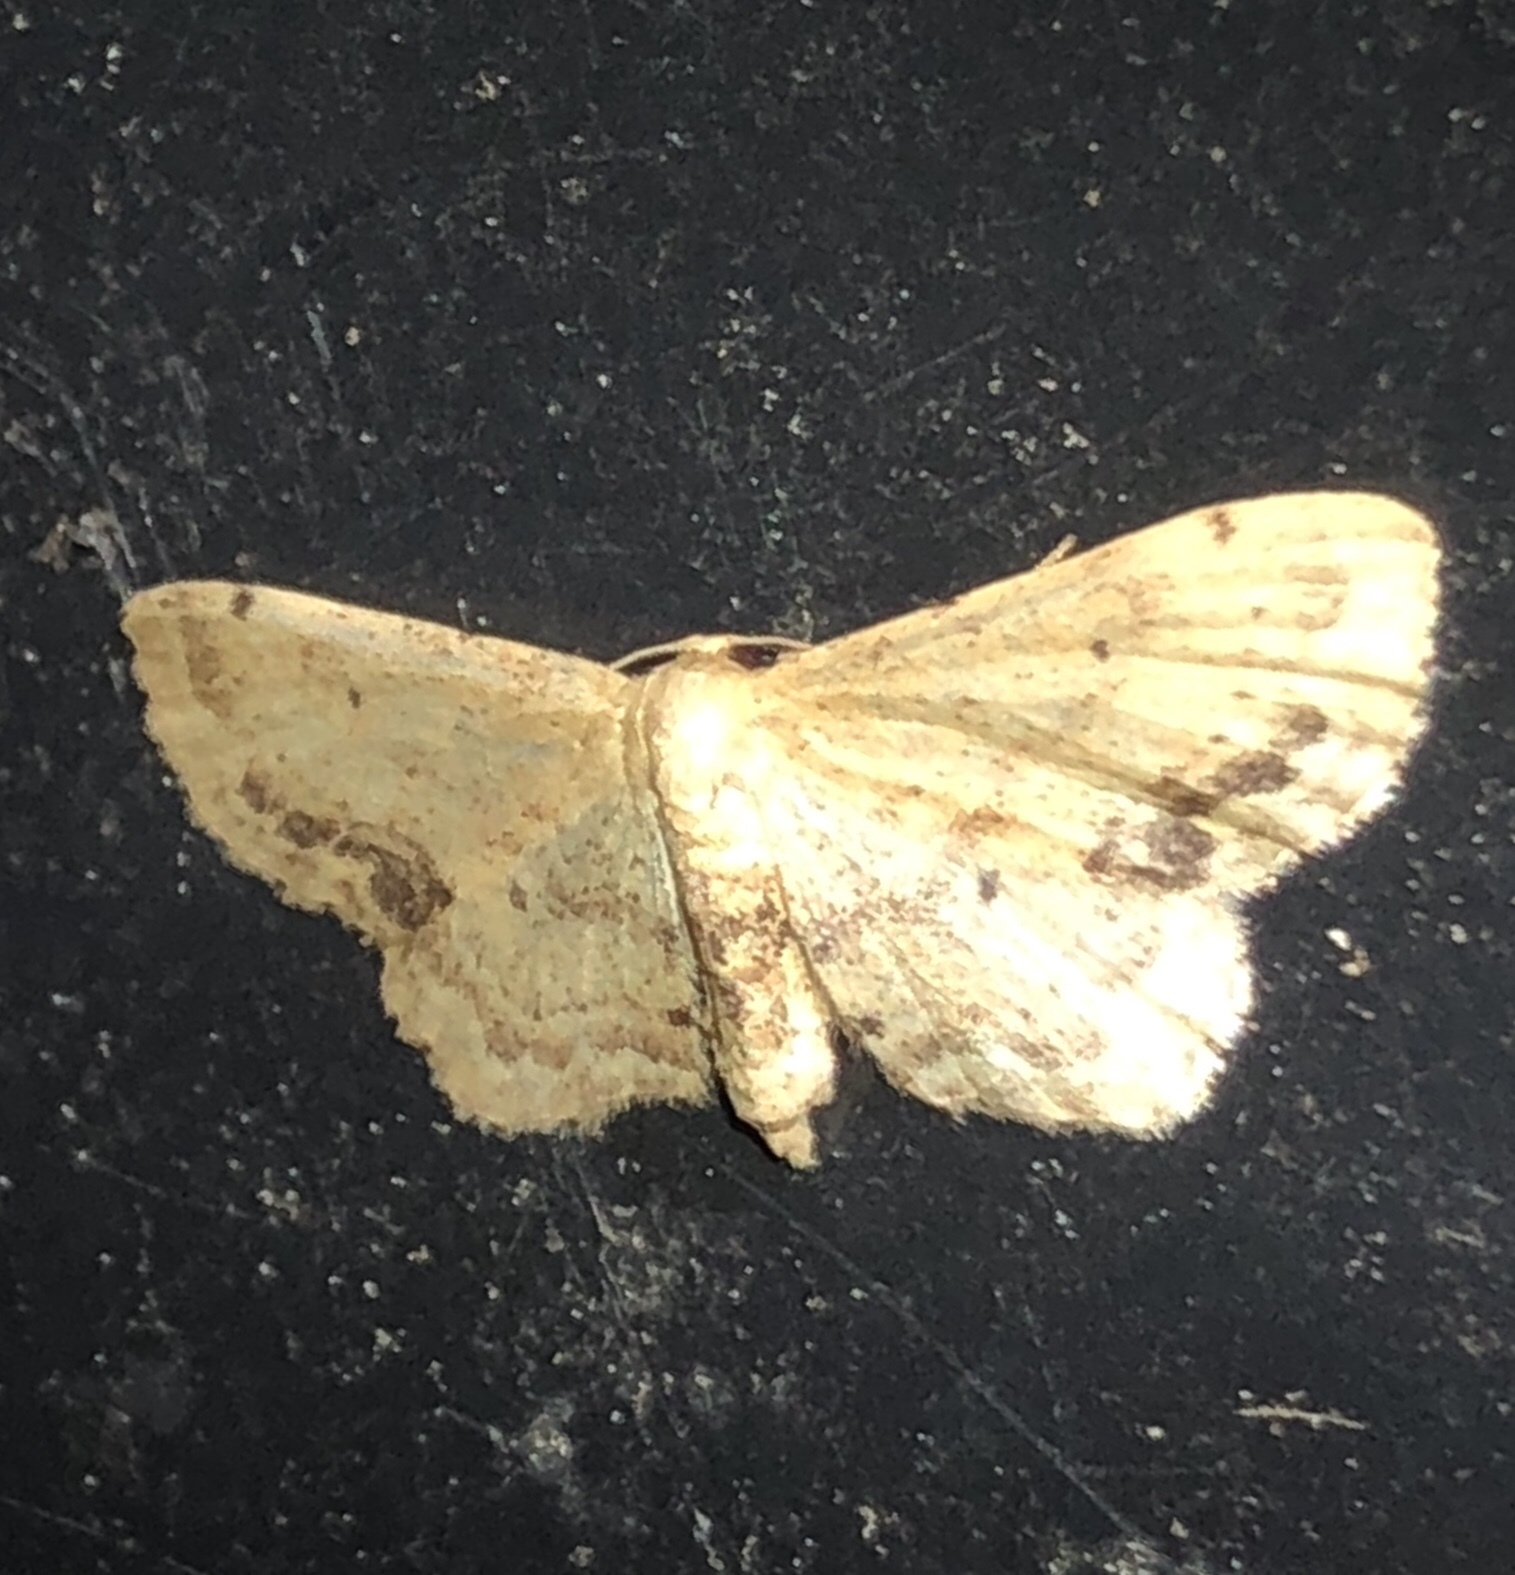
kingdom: Animalia
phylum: Arthropoda
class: Insecta
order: Lepidoptera
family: Geometridae
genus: Idaea
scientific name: Idaea dimidiata
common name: Single-dotted wave
